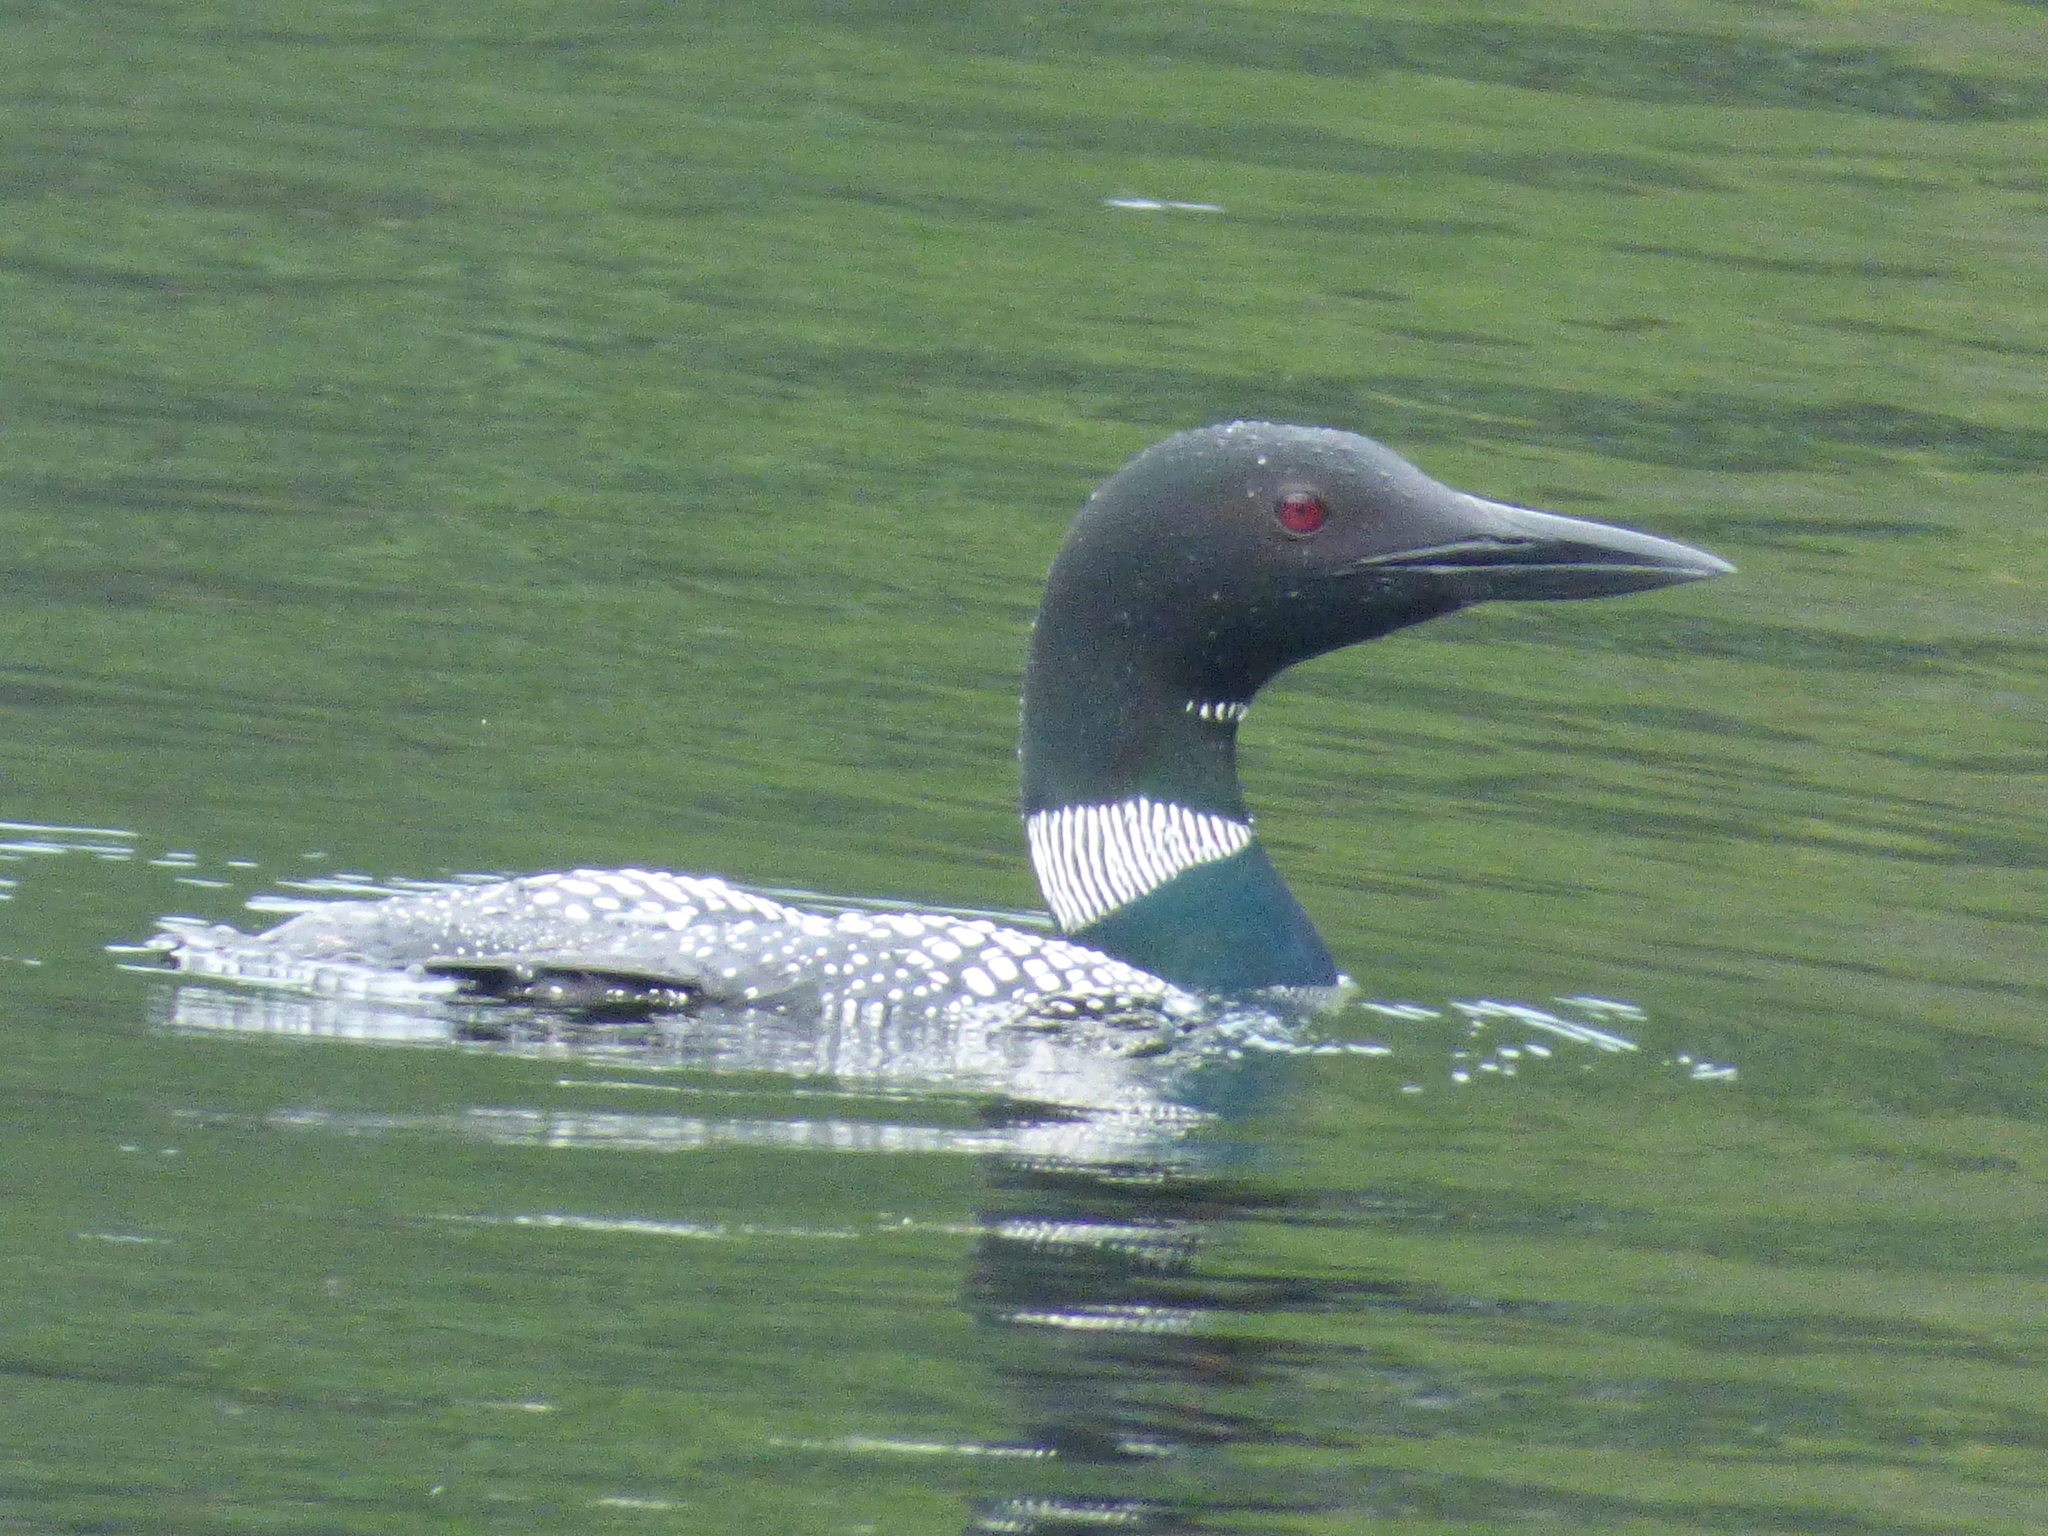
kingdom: Animalia
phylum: Chordata
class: Aves
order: Gaviiformes
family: Gaviidae
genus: Gavia
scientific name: Gavia immer
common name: Common loon
